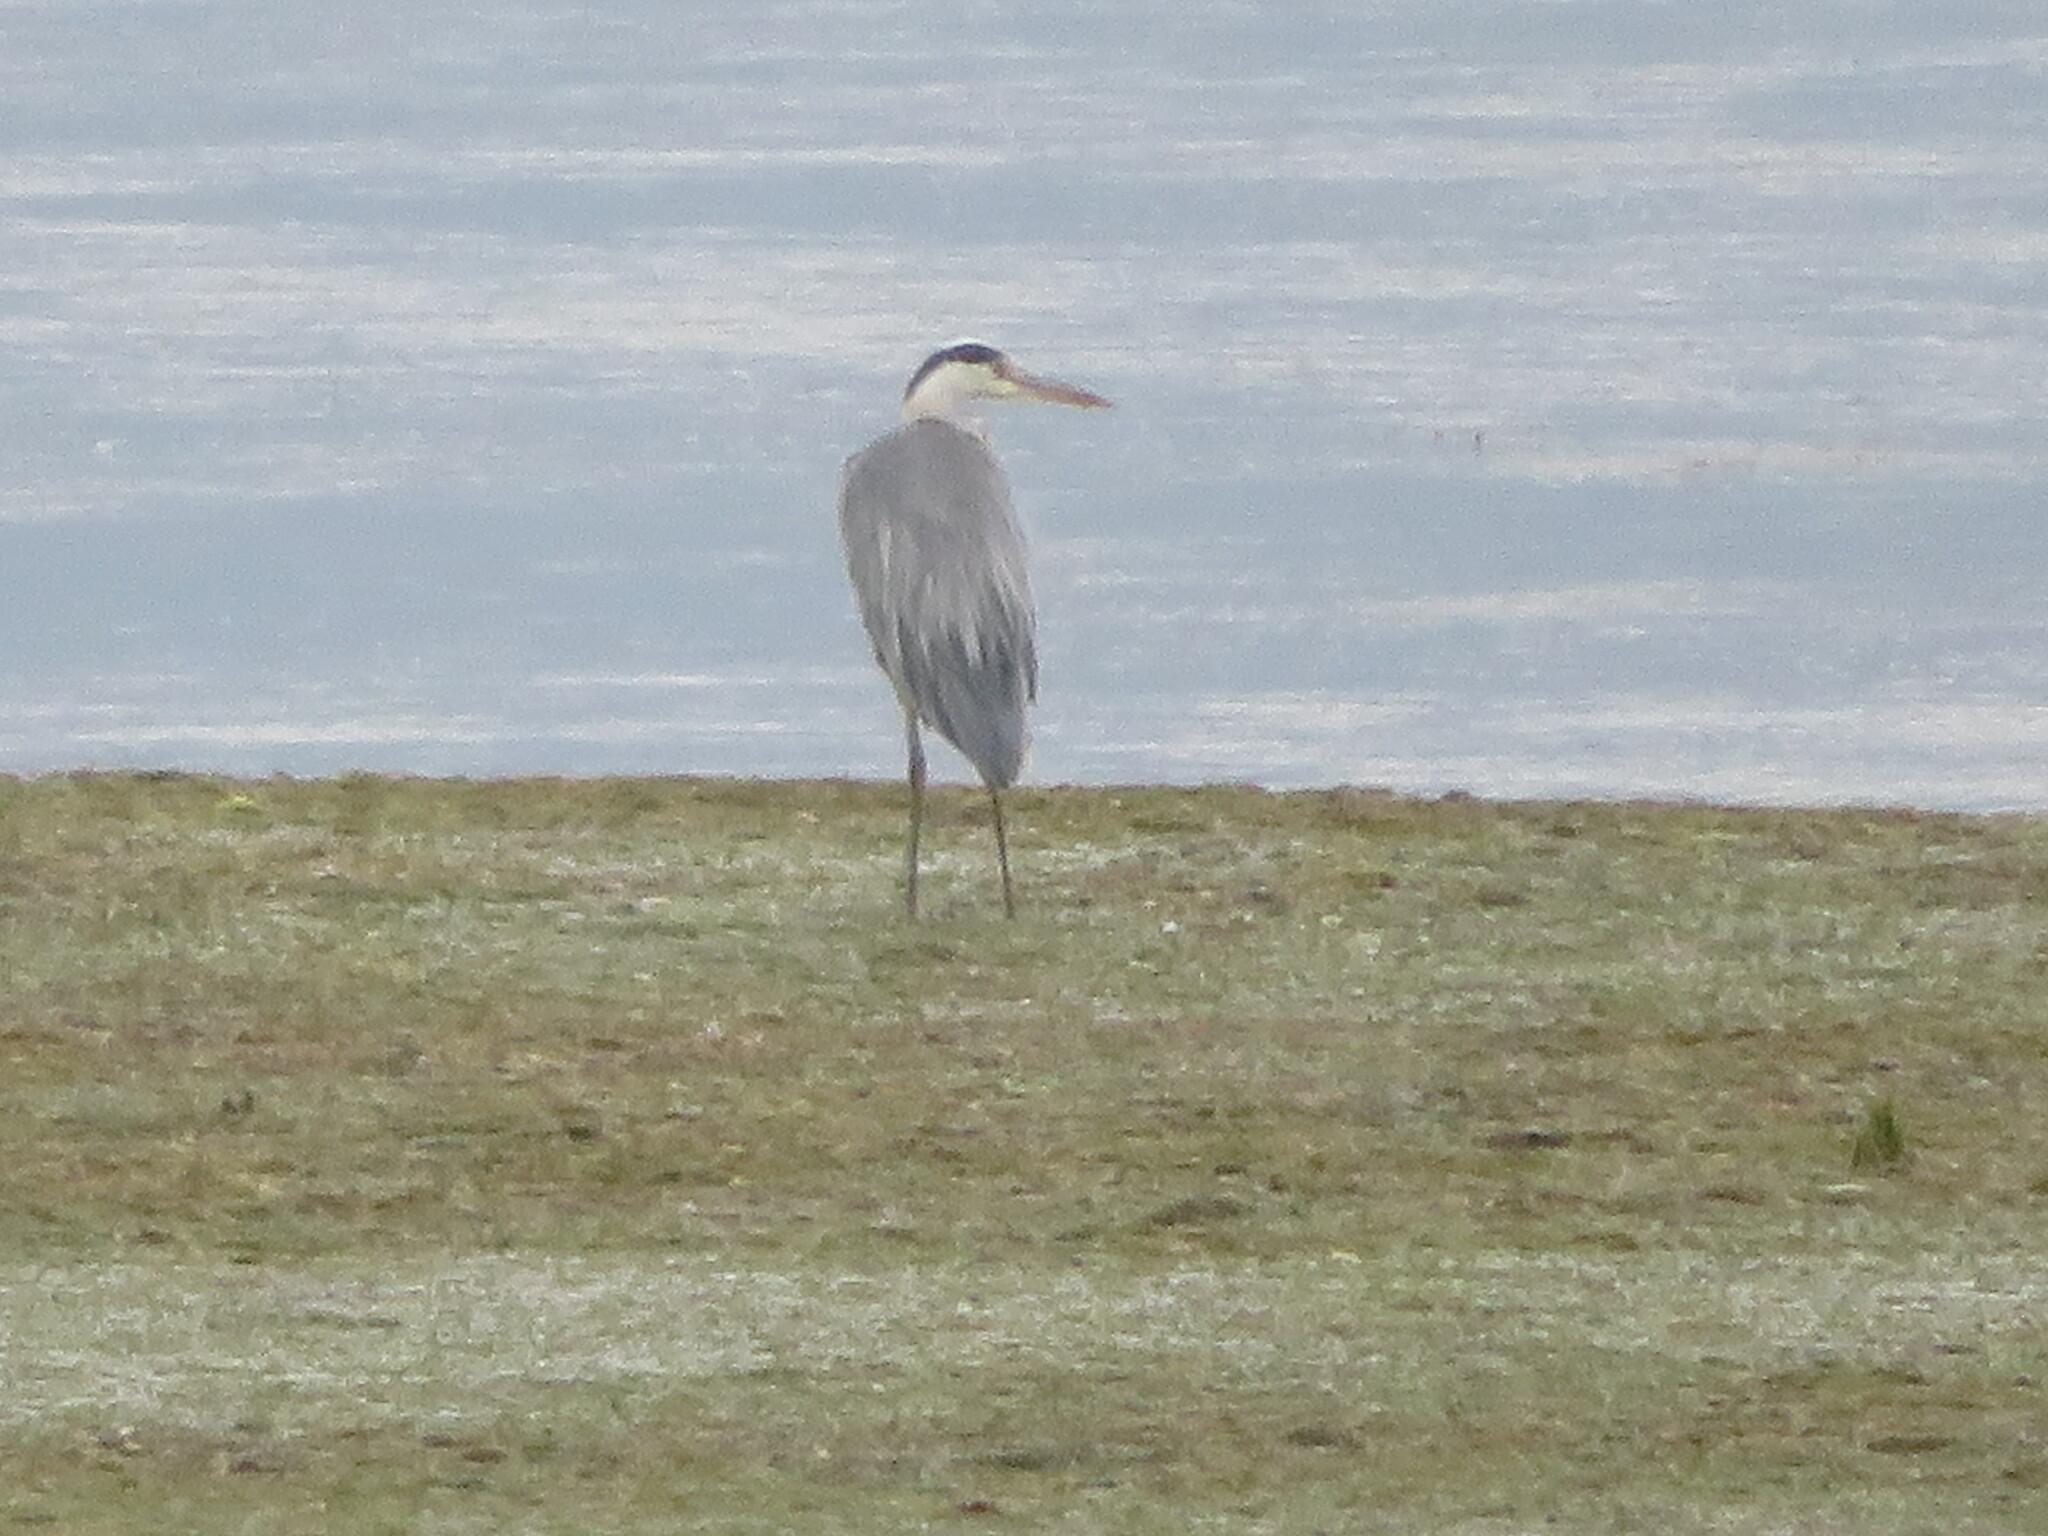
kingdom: Animalia
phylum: Chordata
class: Aves
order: Pelecaniformes
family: Ardeidae
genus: Ardea
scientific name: Ardea cinerea
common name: Grey heron
